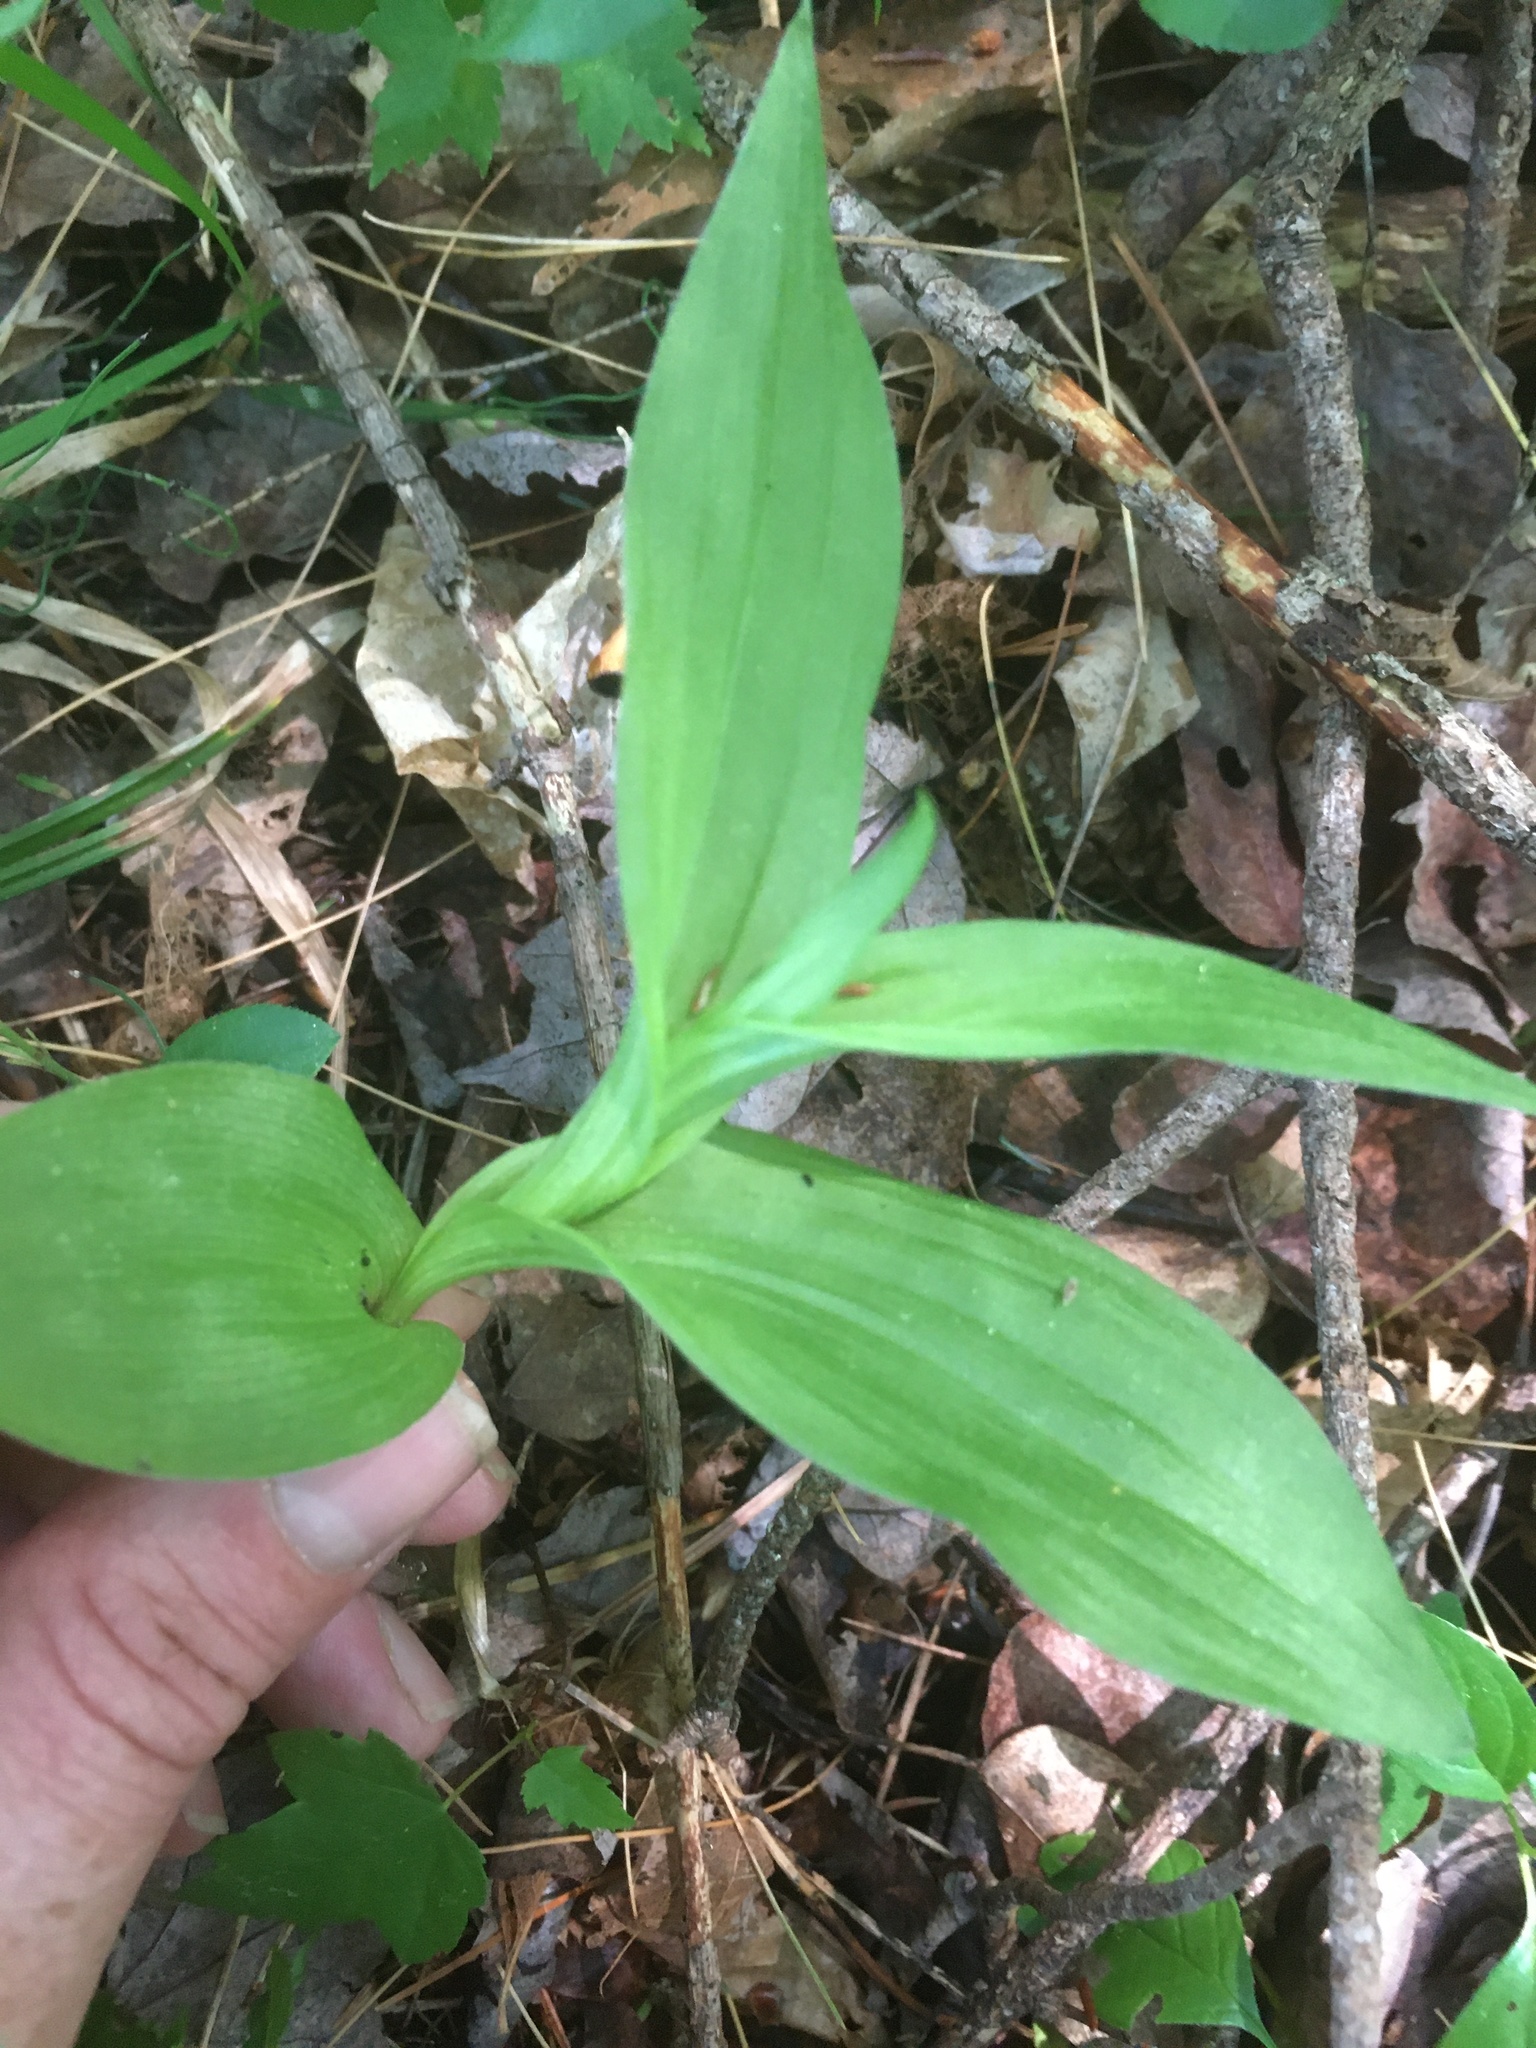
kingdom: Plantae
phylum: Tracheophyta
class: Liliopsida
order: Asparagales
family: Orchidaceae
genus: Epipactis
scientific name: Epipactis helleborine
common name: Broad-leaved helleborine
